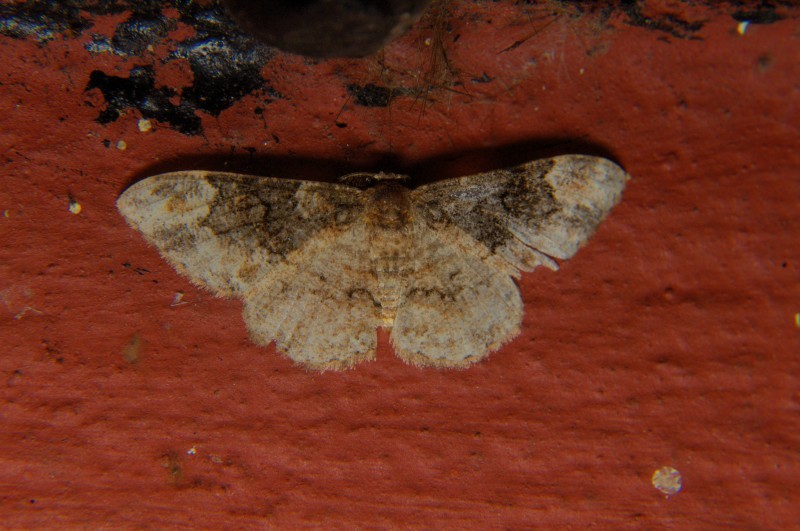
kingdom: Animalia
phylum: Arthropoda
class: Insecta
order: Lepidoptera
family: Geometridae
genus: Parapholodes
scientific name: Parapholodes
